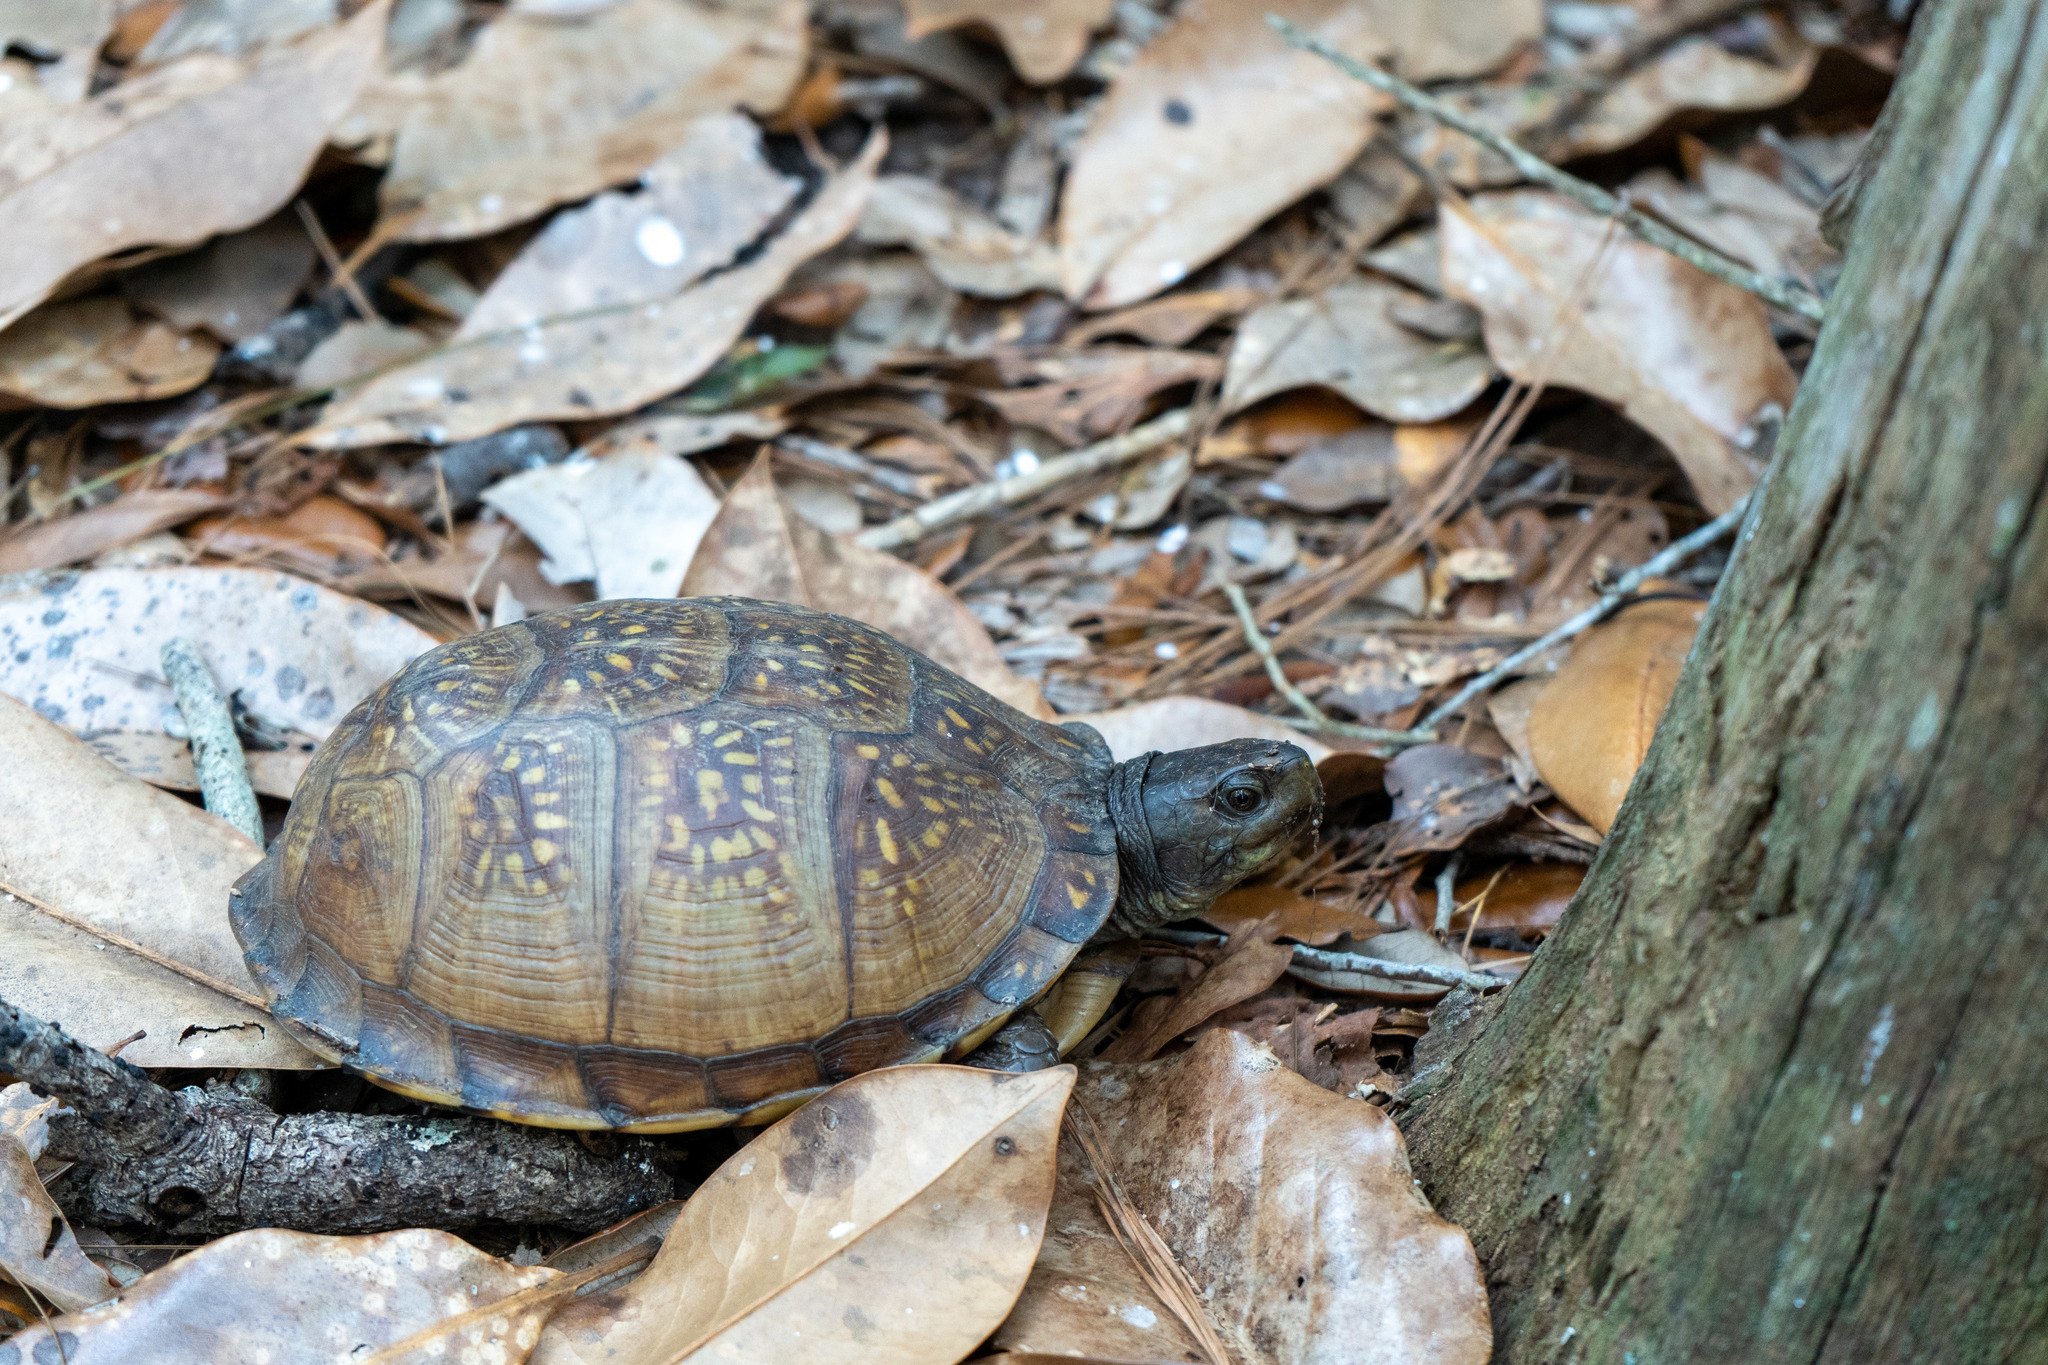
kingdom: Animalia
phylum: Chordata
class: Testudines
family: Emydidae
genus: Terrapene
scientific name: Terrapene carolina
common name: Common box turtle
